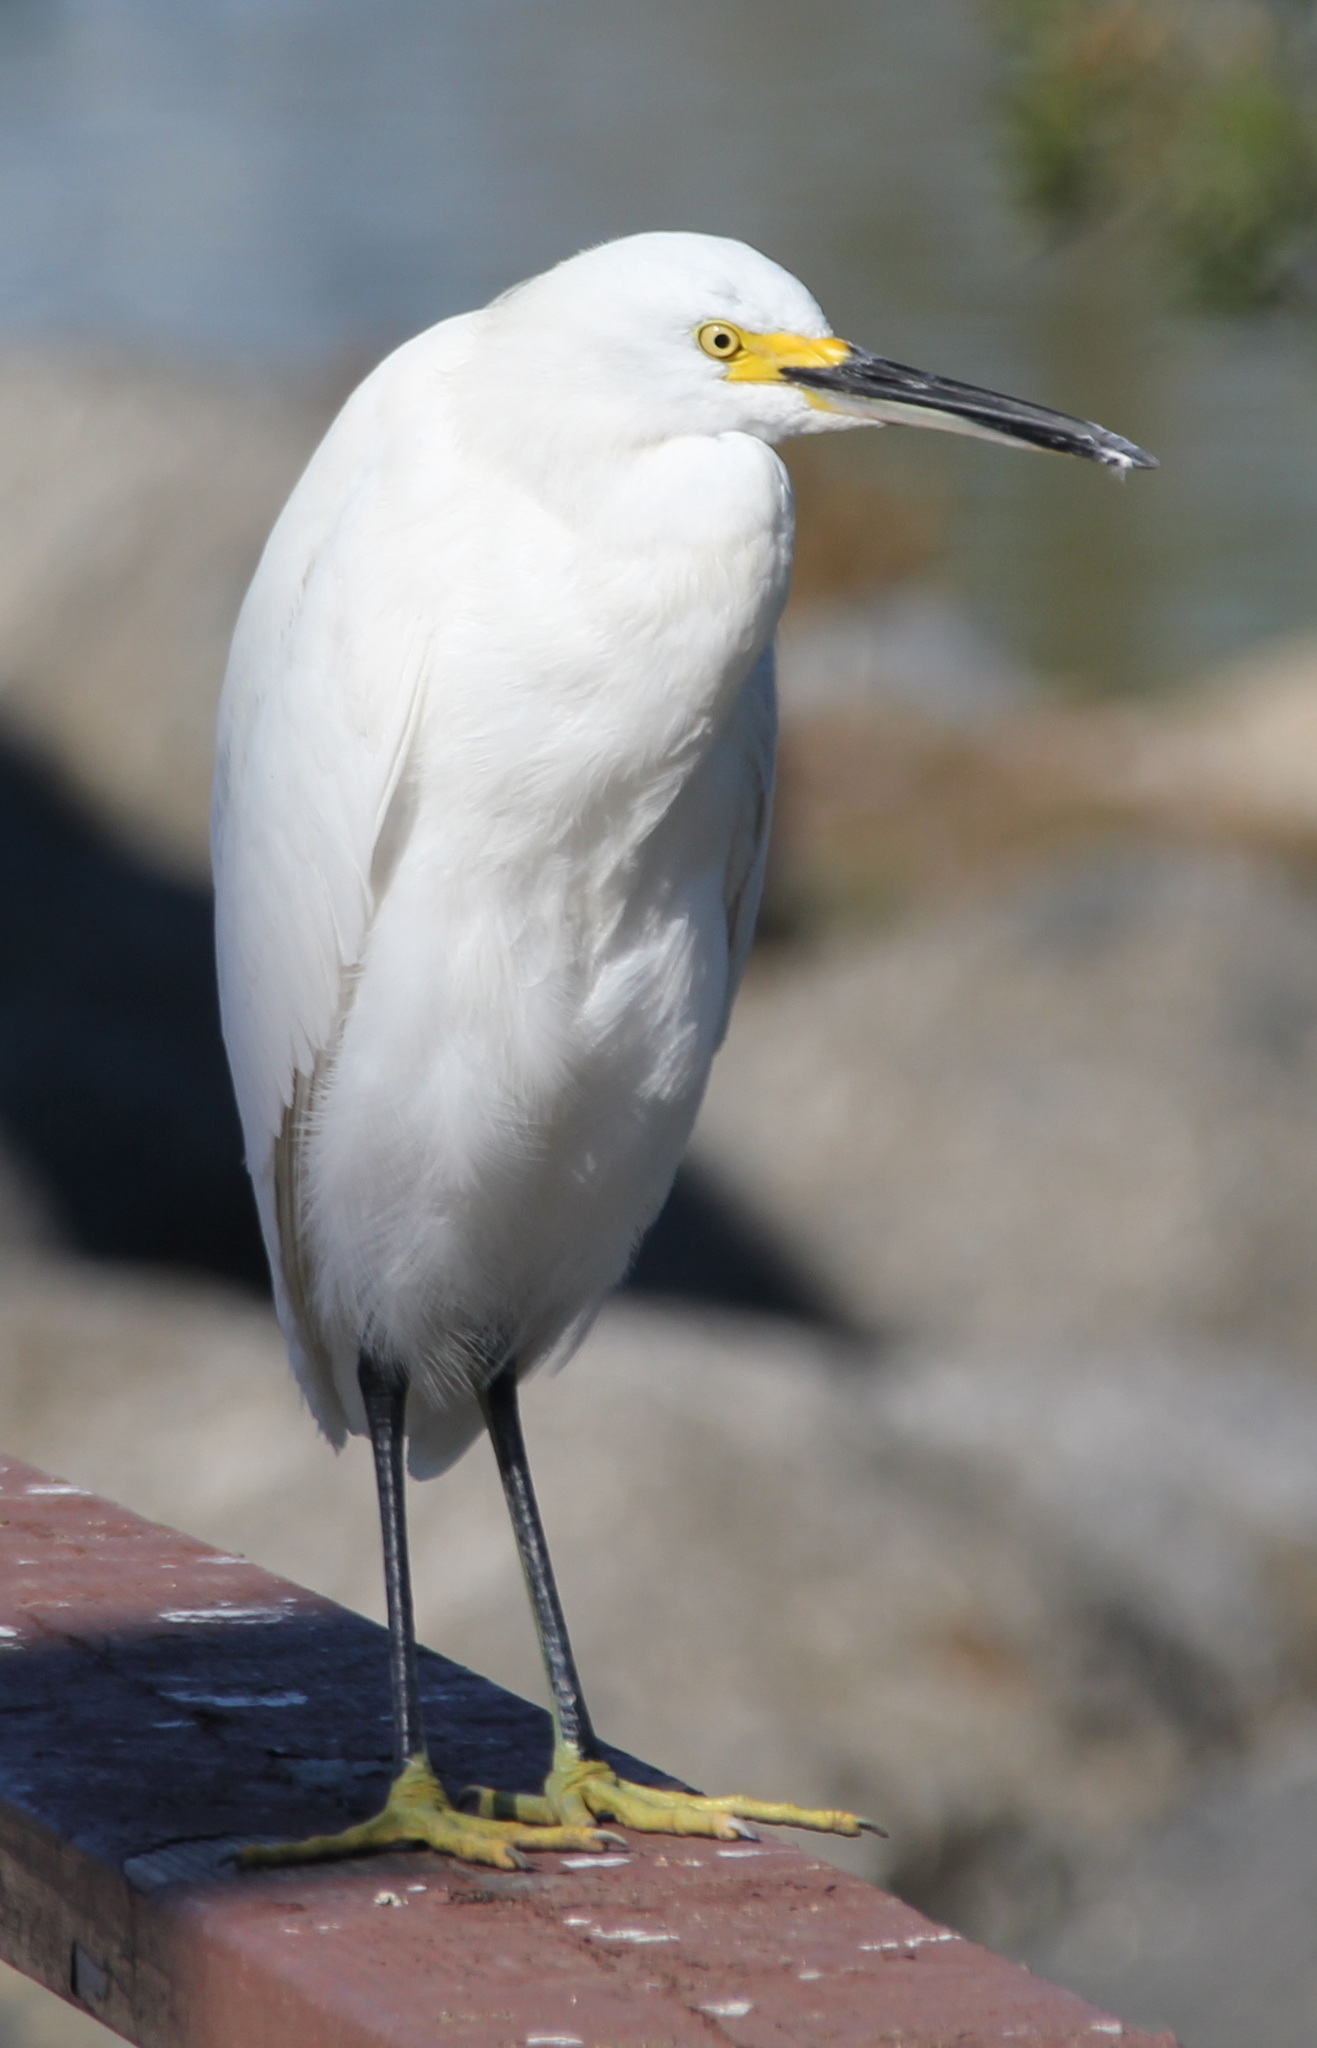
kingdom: Animalia
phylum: Chordata
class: Aves
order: Pelecaniformes
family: Ardeidae
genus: Egretta
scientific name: Egretta thula
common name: Snowy egret
